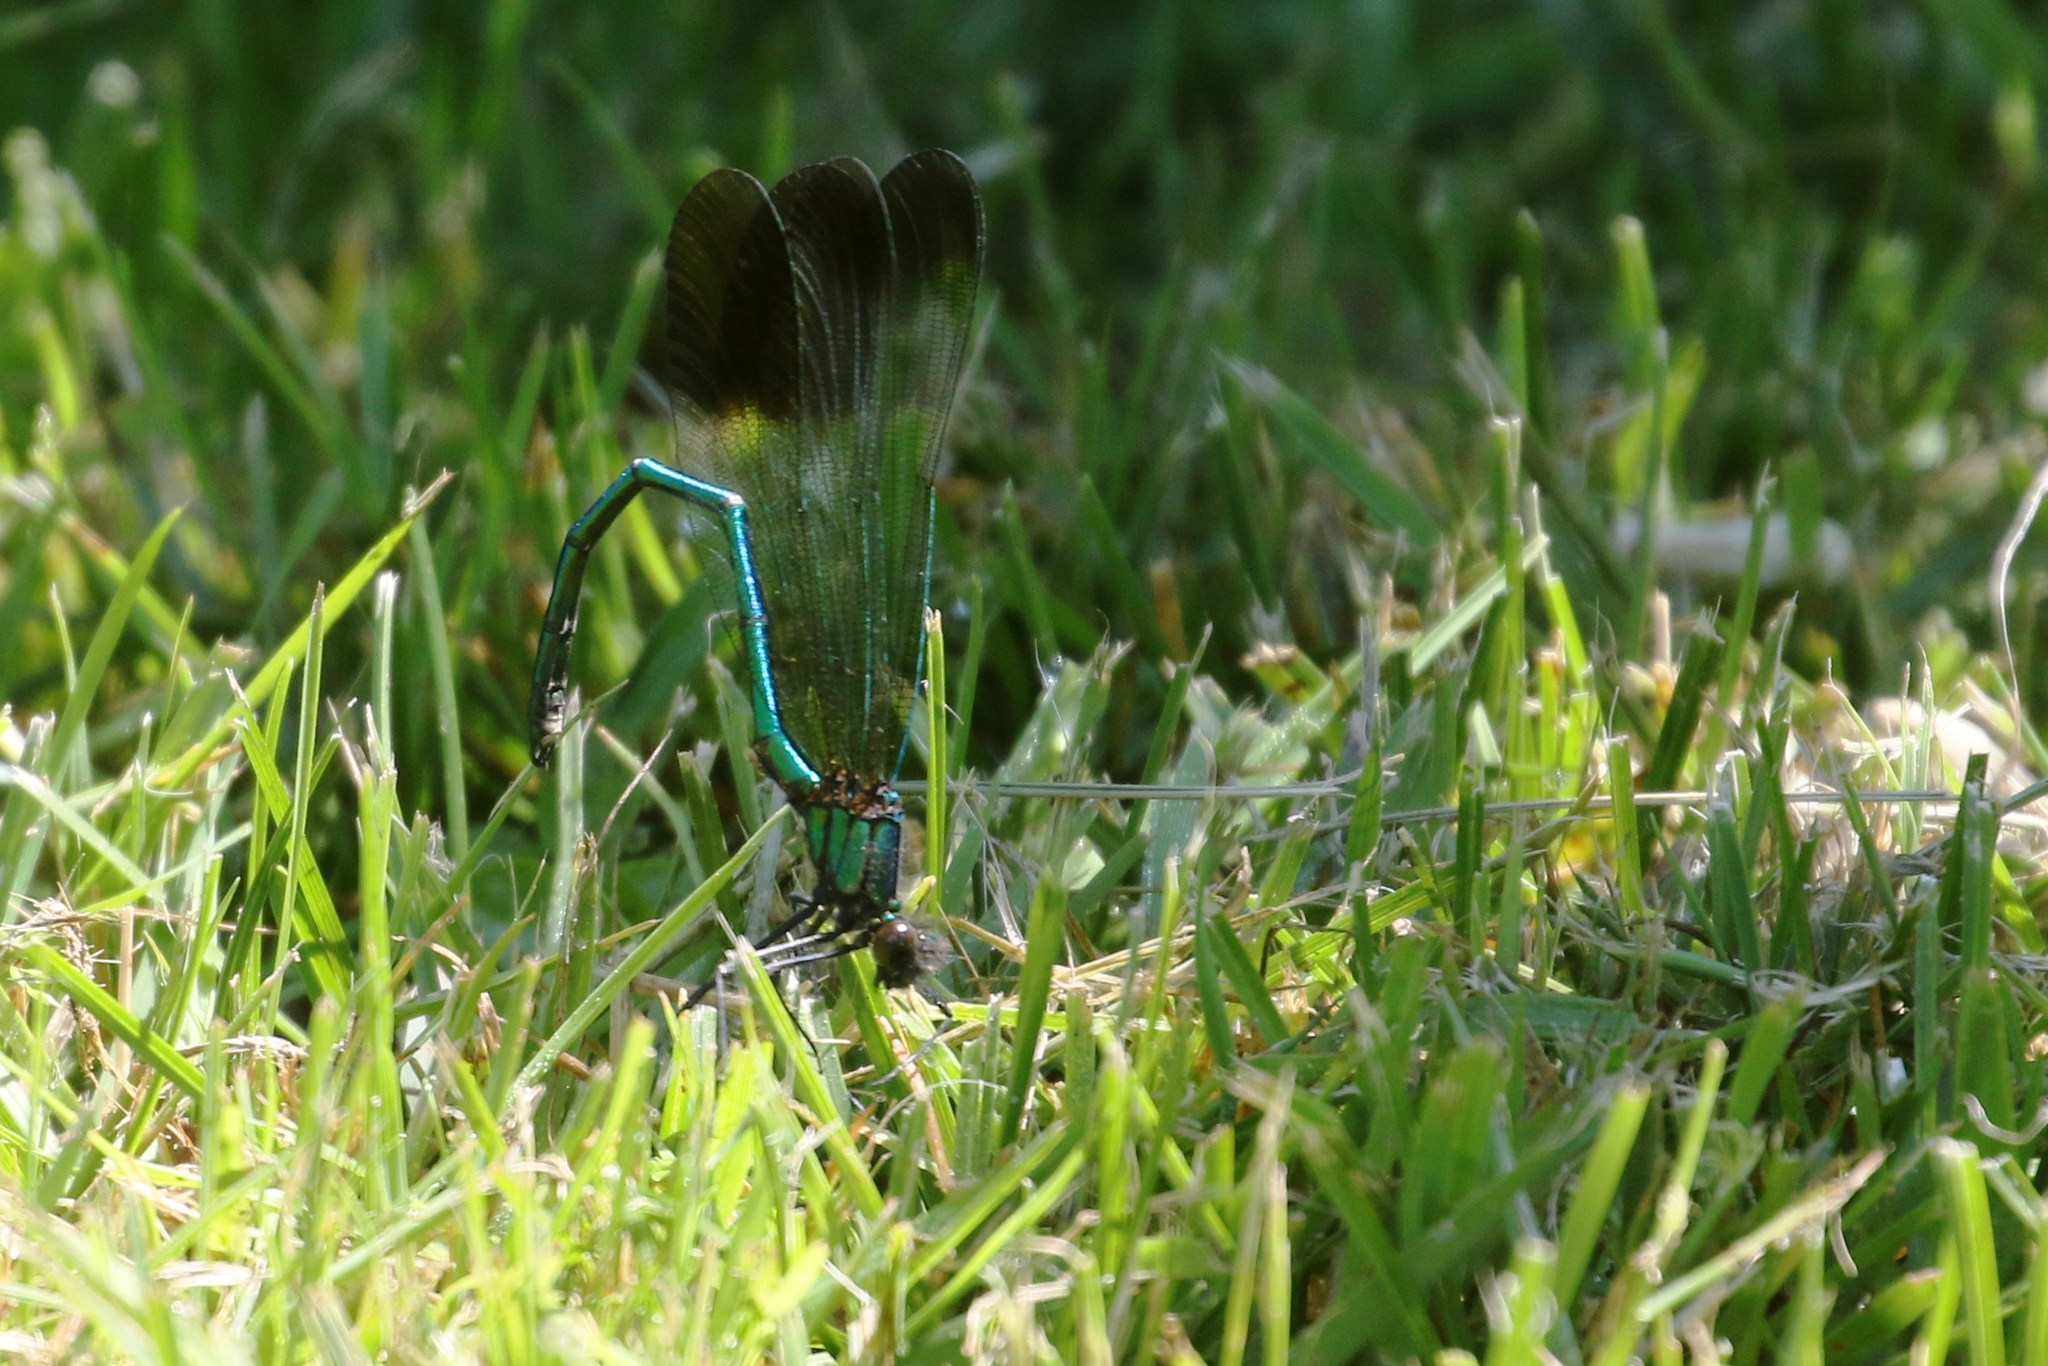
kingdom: Animalia
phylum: Arthropoda
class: Insecta
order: Odonata
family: Calopterygidae
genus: Calopteryx
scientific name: Calopteryx aequabilis
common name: River jewelwing
